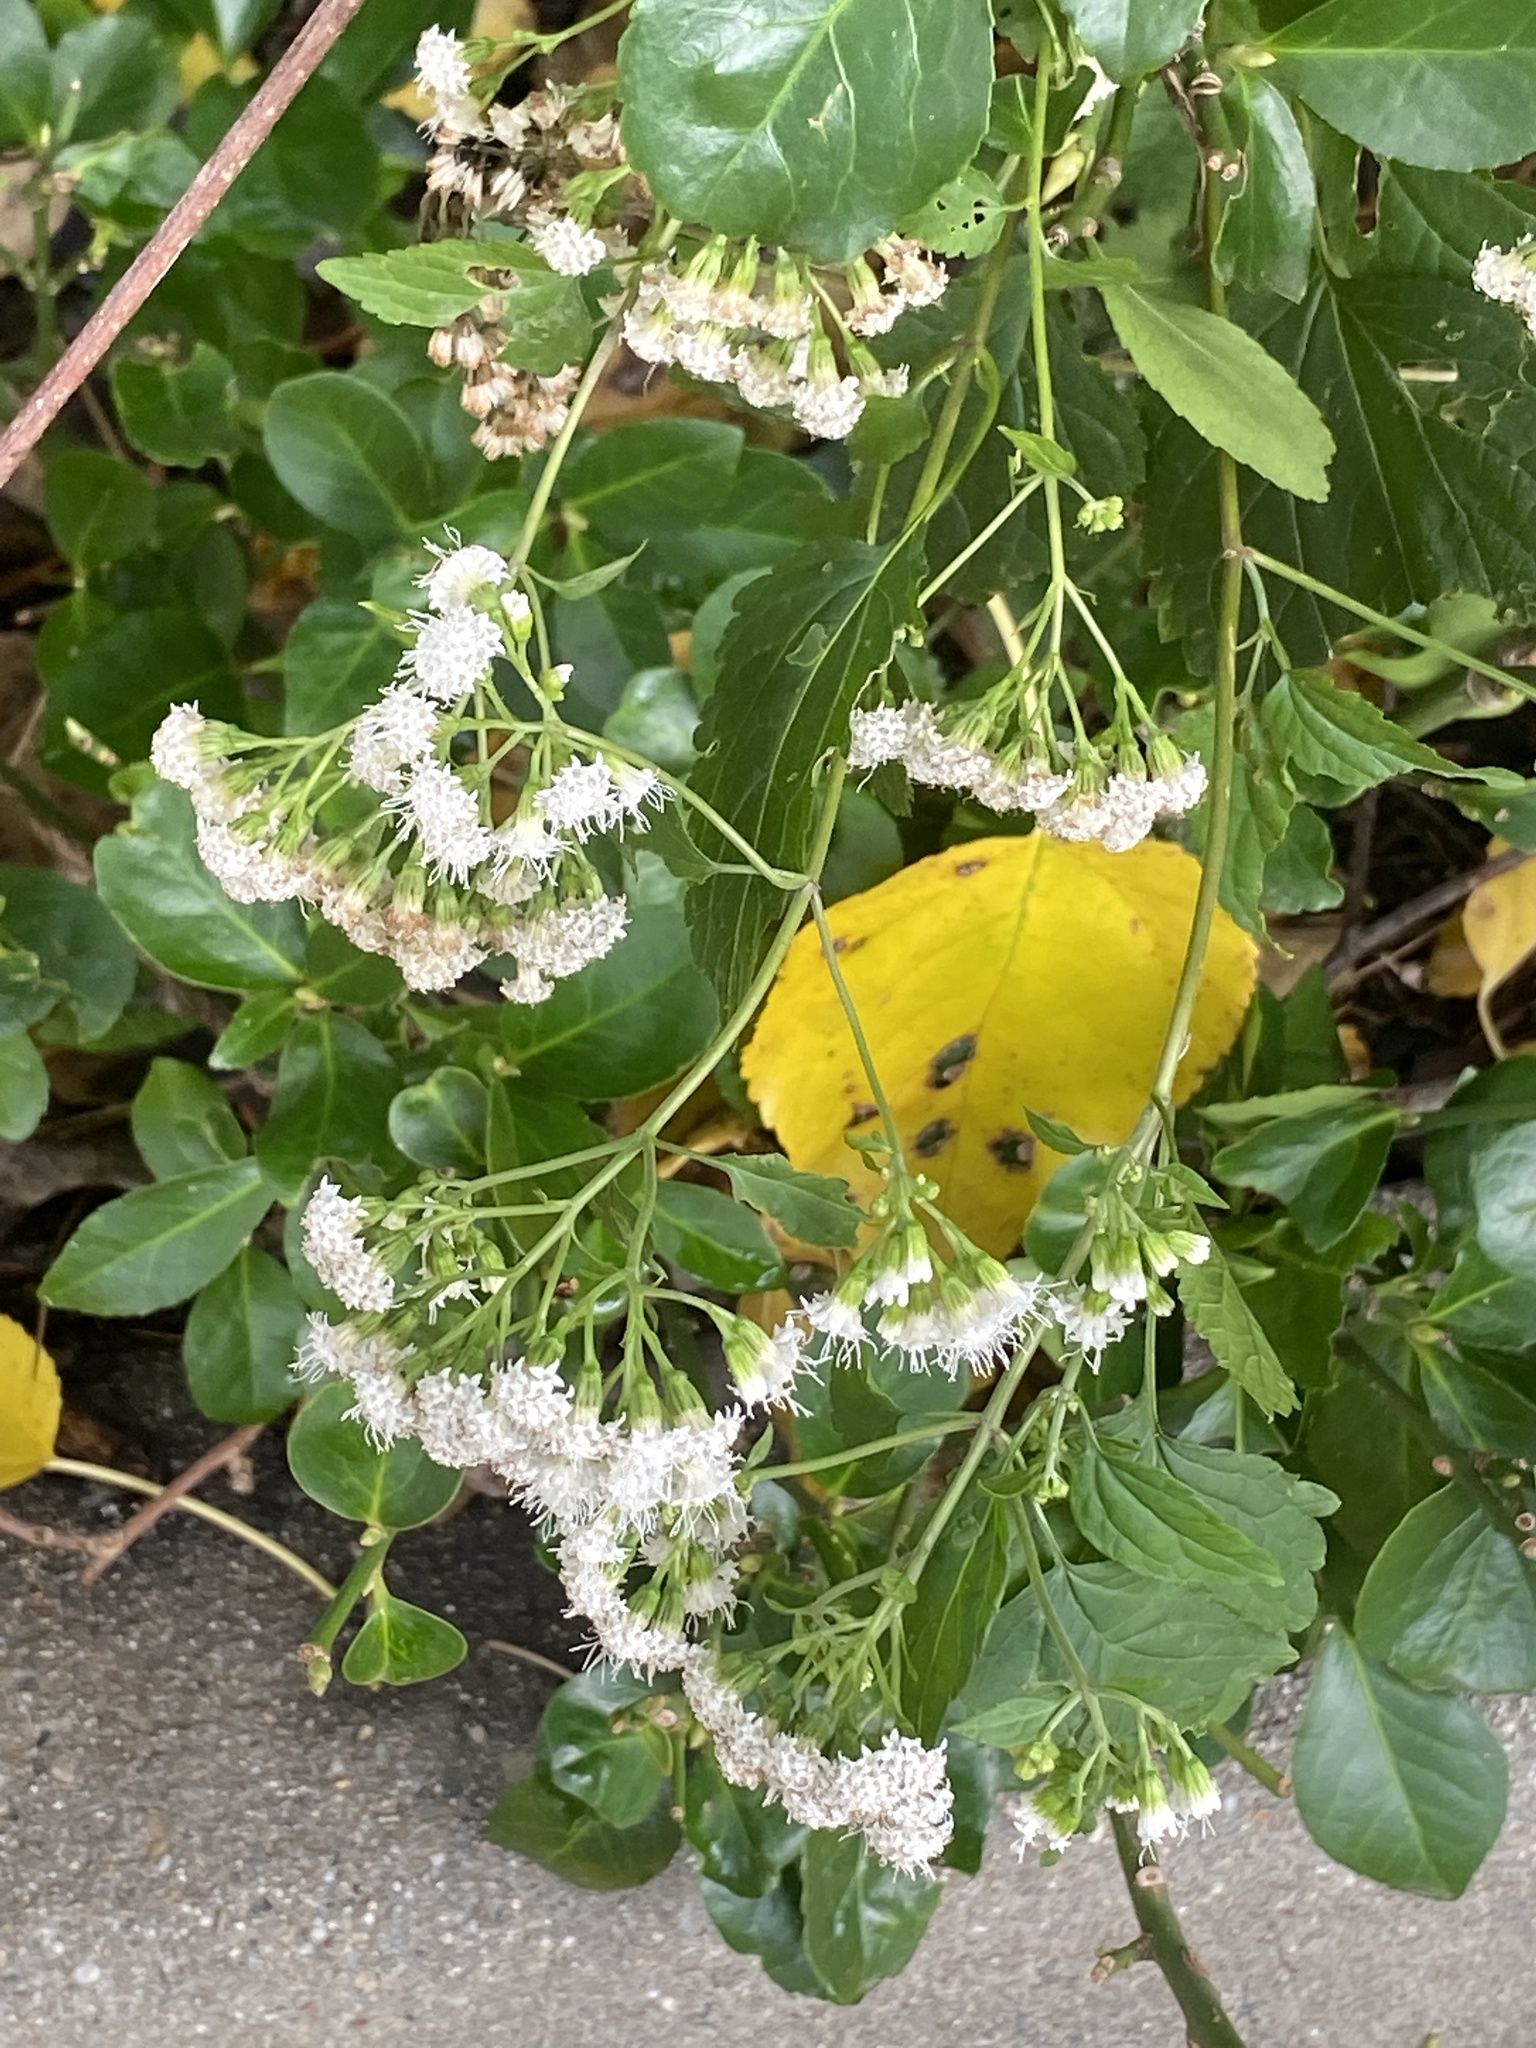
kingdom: Plantae
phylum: Tracheophyta
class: Magnoliopsida
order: Asterales
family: Asteraceae
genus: Ageratina
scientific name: Ageratina altissima
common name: White snakeroot
